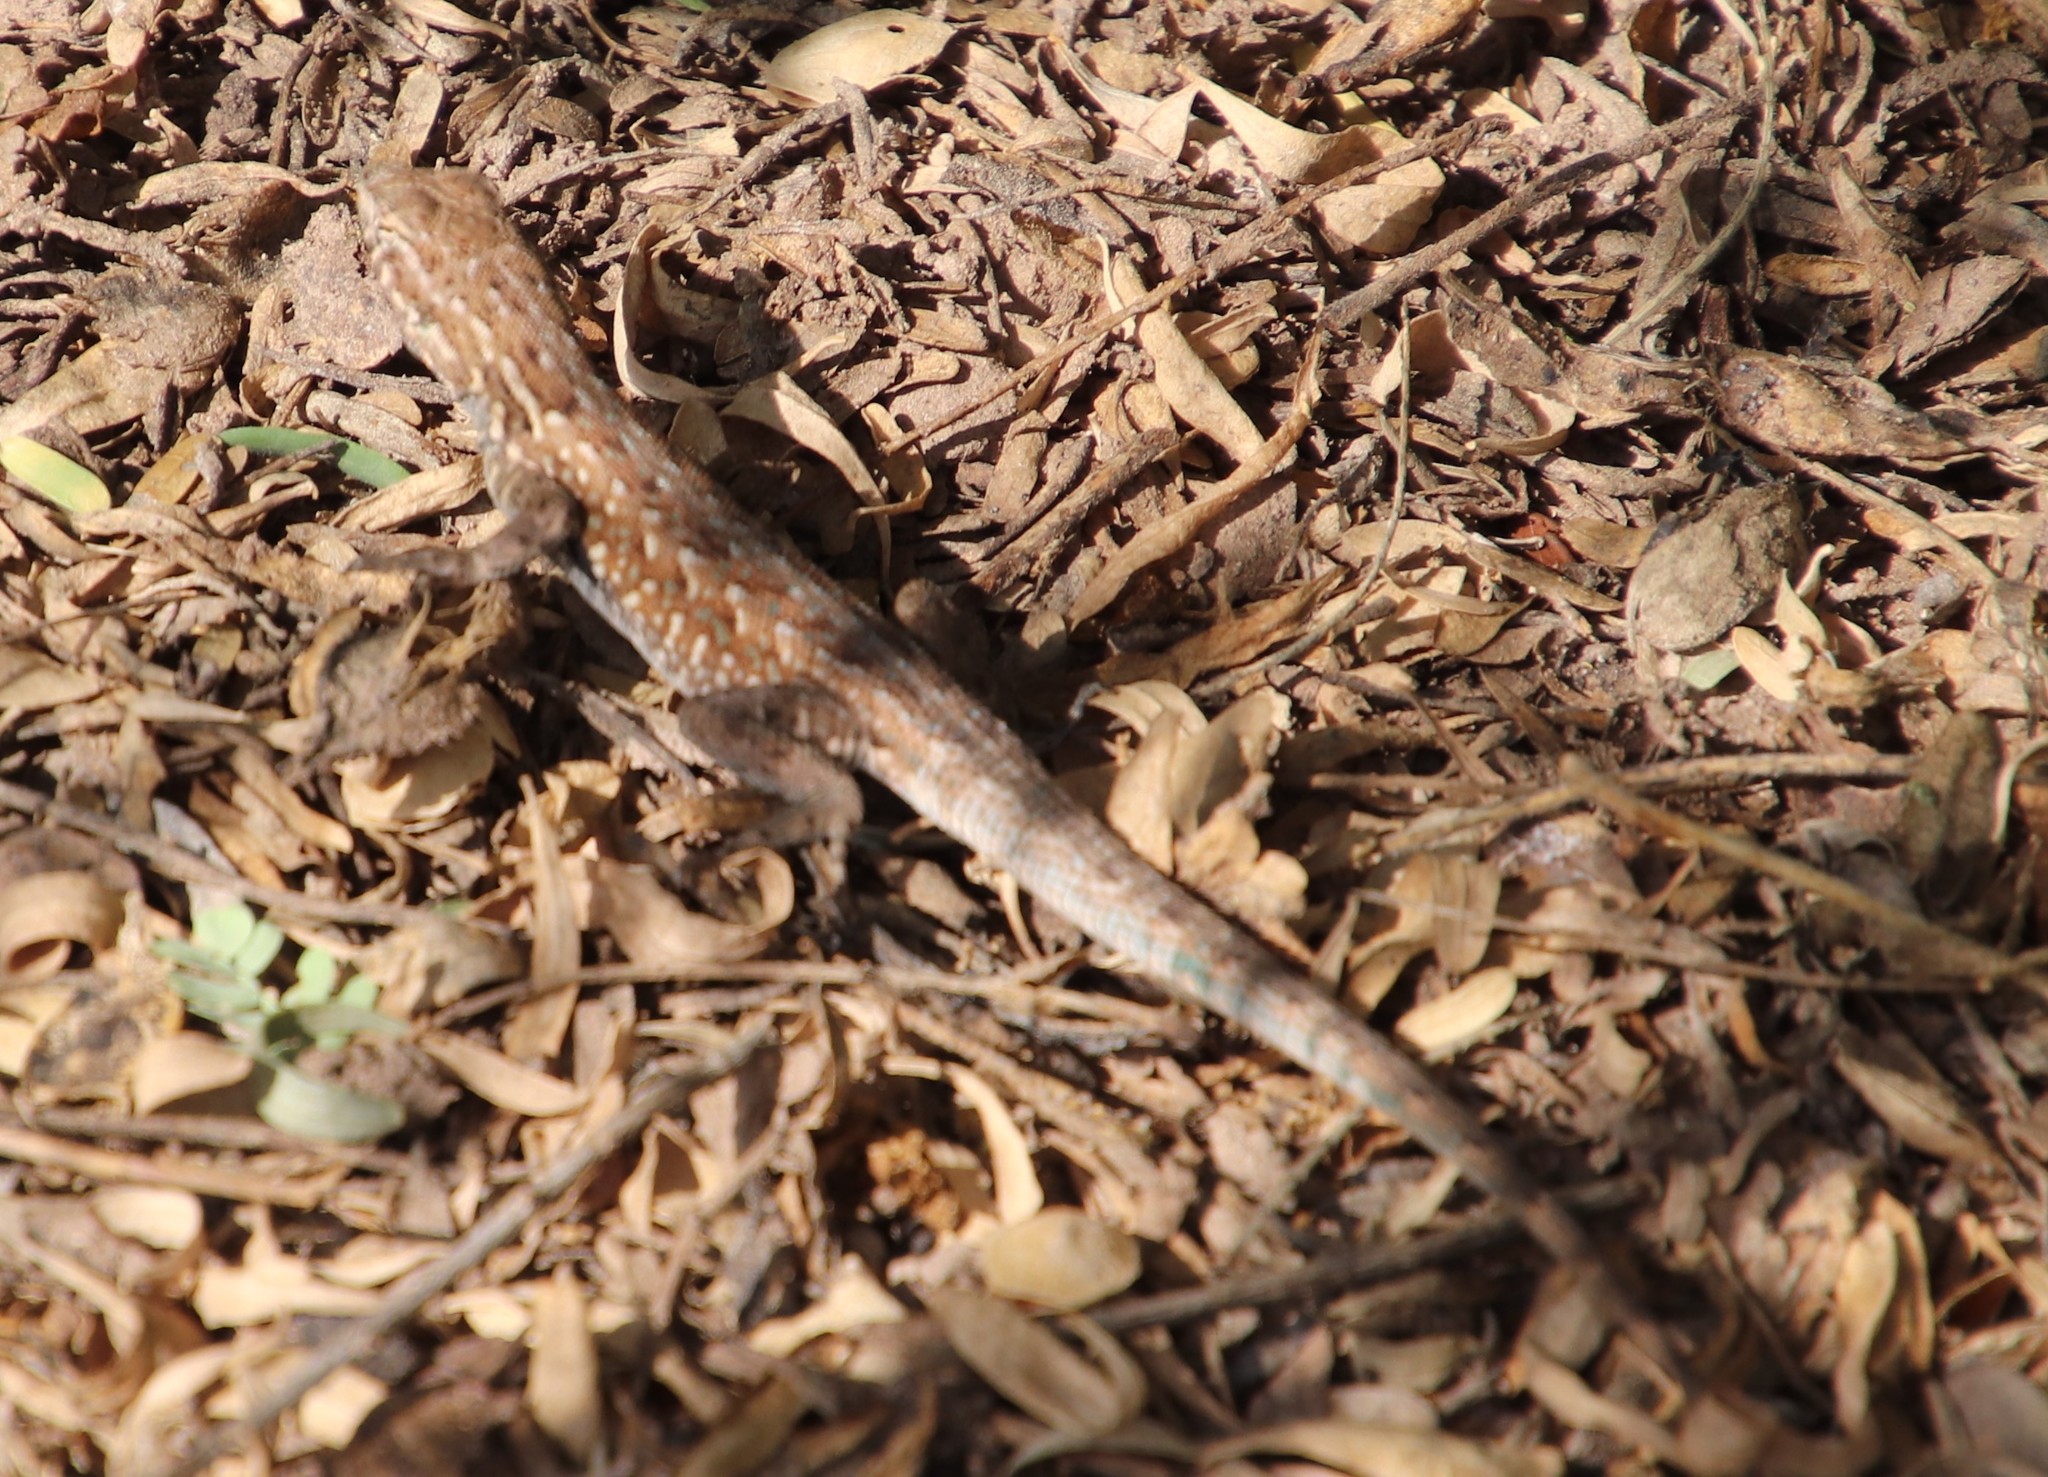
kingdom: Animalia
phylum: Chordata
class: Squamata
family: Phrynosomatidae
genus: Uta
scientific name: Uta stansburiana
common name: Side-blotched lizard
